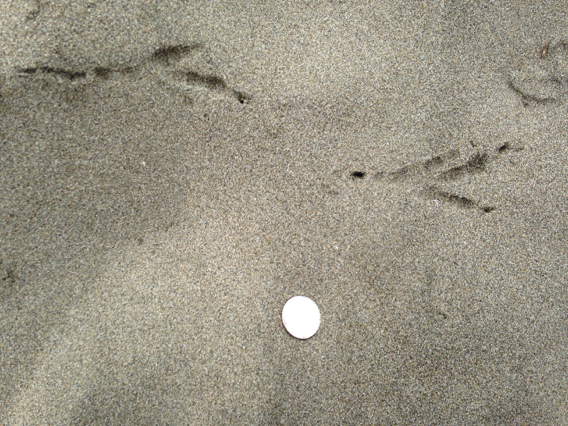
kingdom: Animalia
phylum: Chordata
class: Aves
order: Passeriformes
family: Corvidae
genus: Corvus
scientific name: Corvus corax
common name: Common raven
